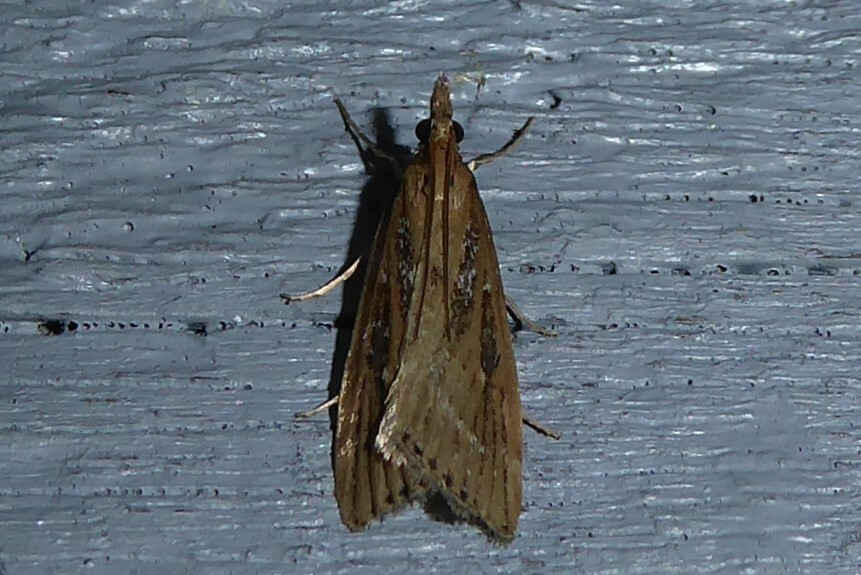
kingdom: Animalia
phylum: Arthropoda
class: Insecta
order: Lepidoptera
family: Crambidae
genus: Eudonia
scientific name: Eudonia octophora
